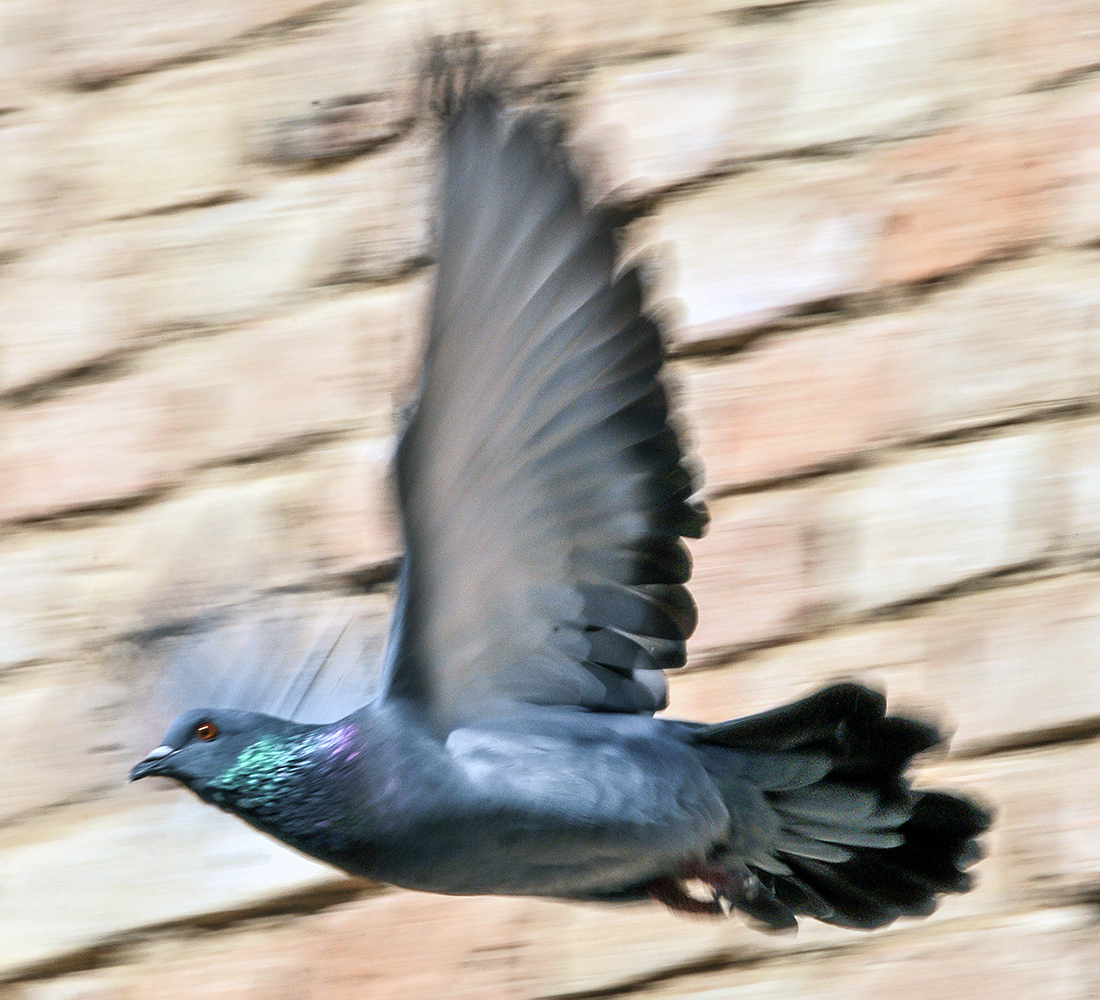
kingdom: Animalia
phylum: Chordata
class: Aves
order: Columbiformes
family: Columbidae
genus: Columba
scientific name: Columba livia
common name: Rock pigeon
